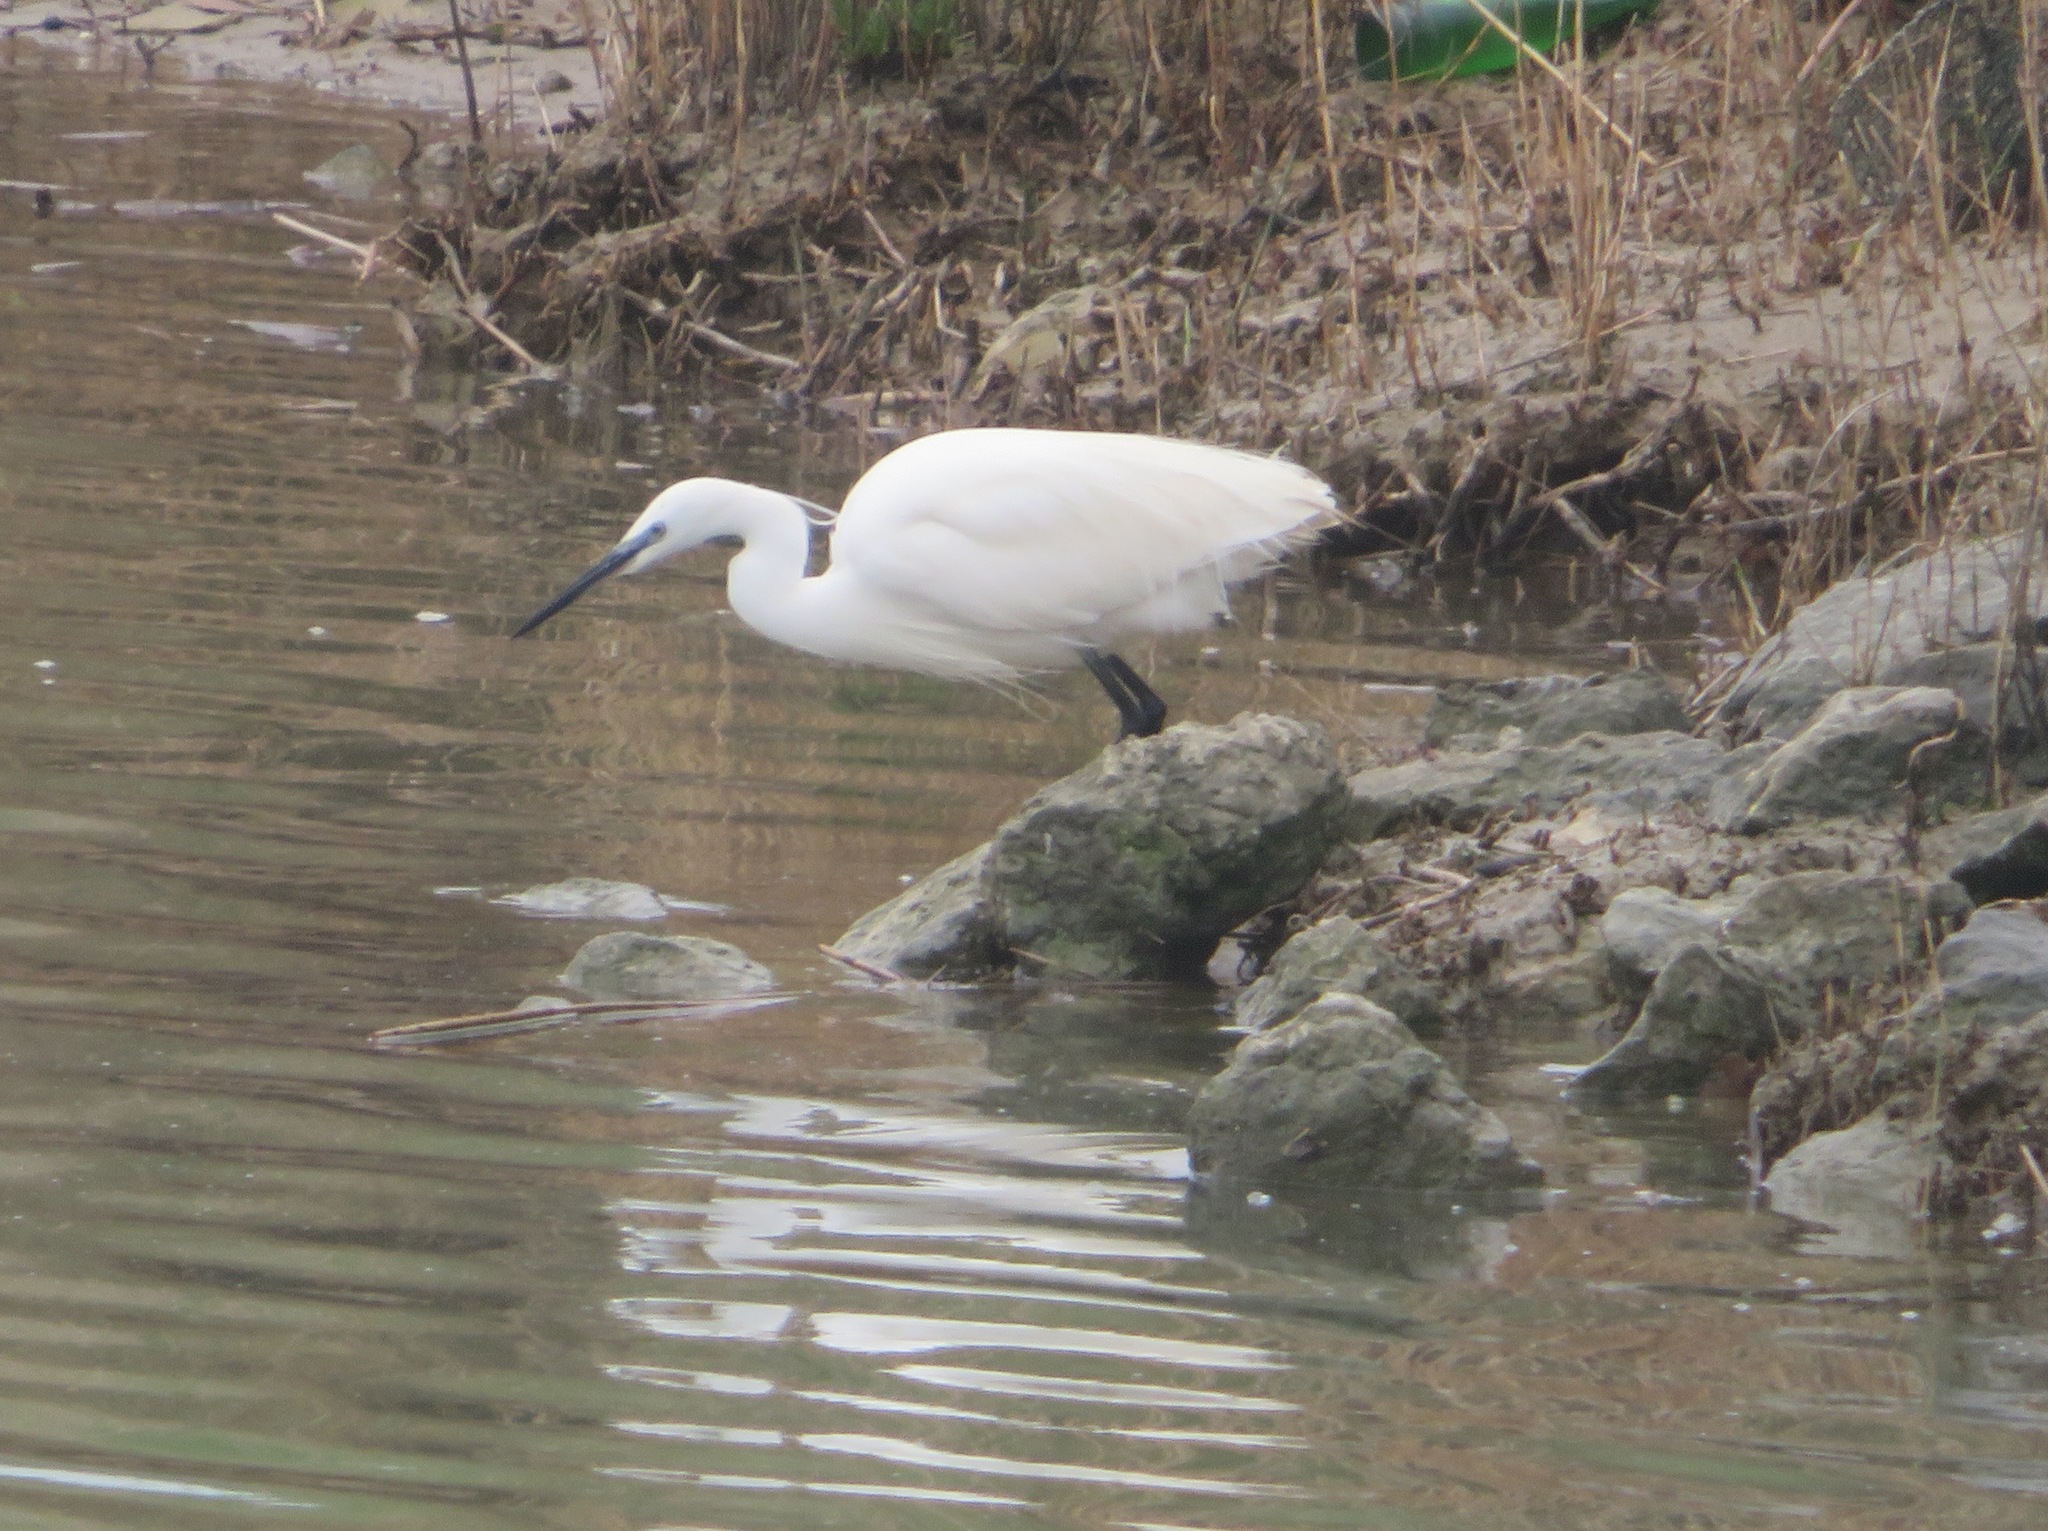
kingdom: Animalia
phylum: Chordata
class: Aves
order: Pelecaniformes
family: Ardeidae
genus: Egretta
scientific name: Egretta garzetta
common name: Little egret
